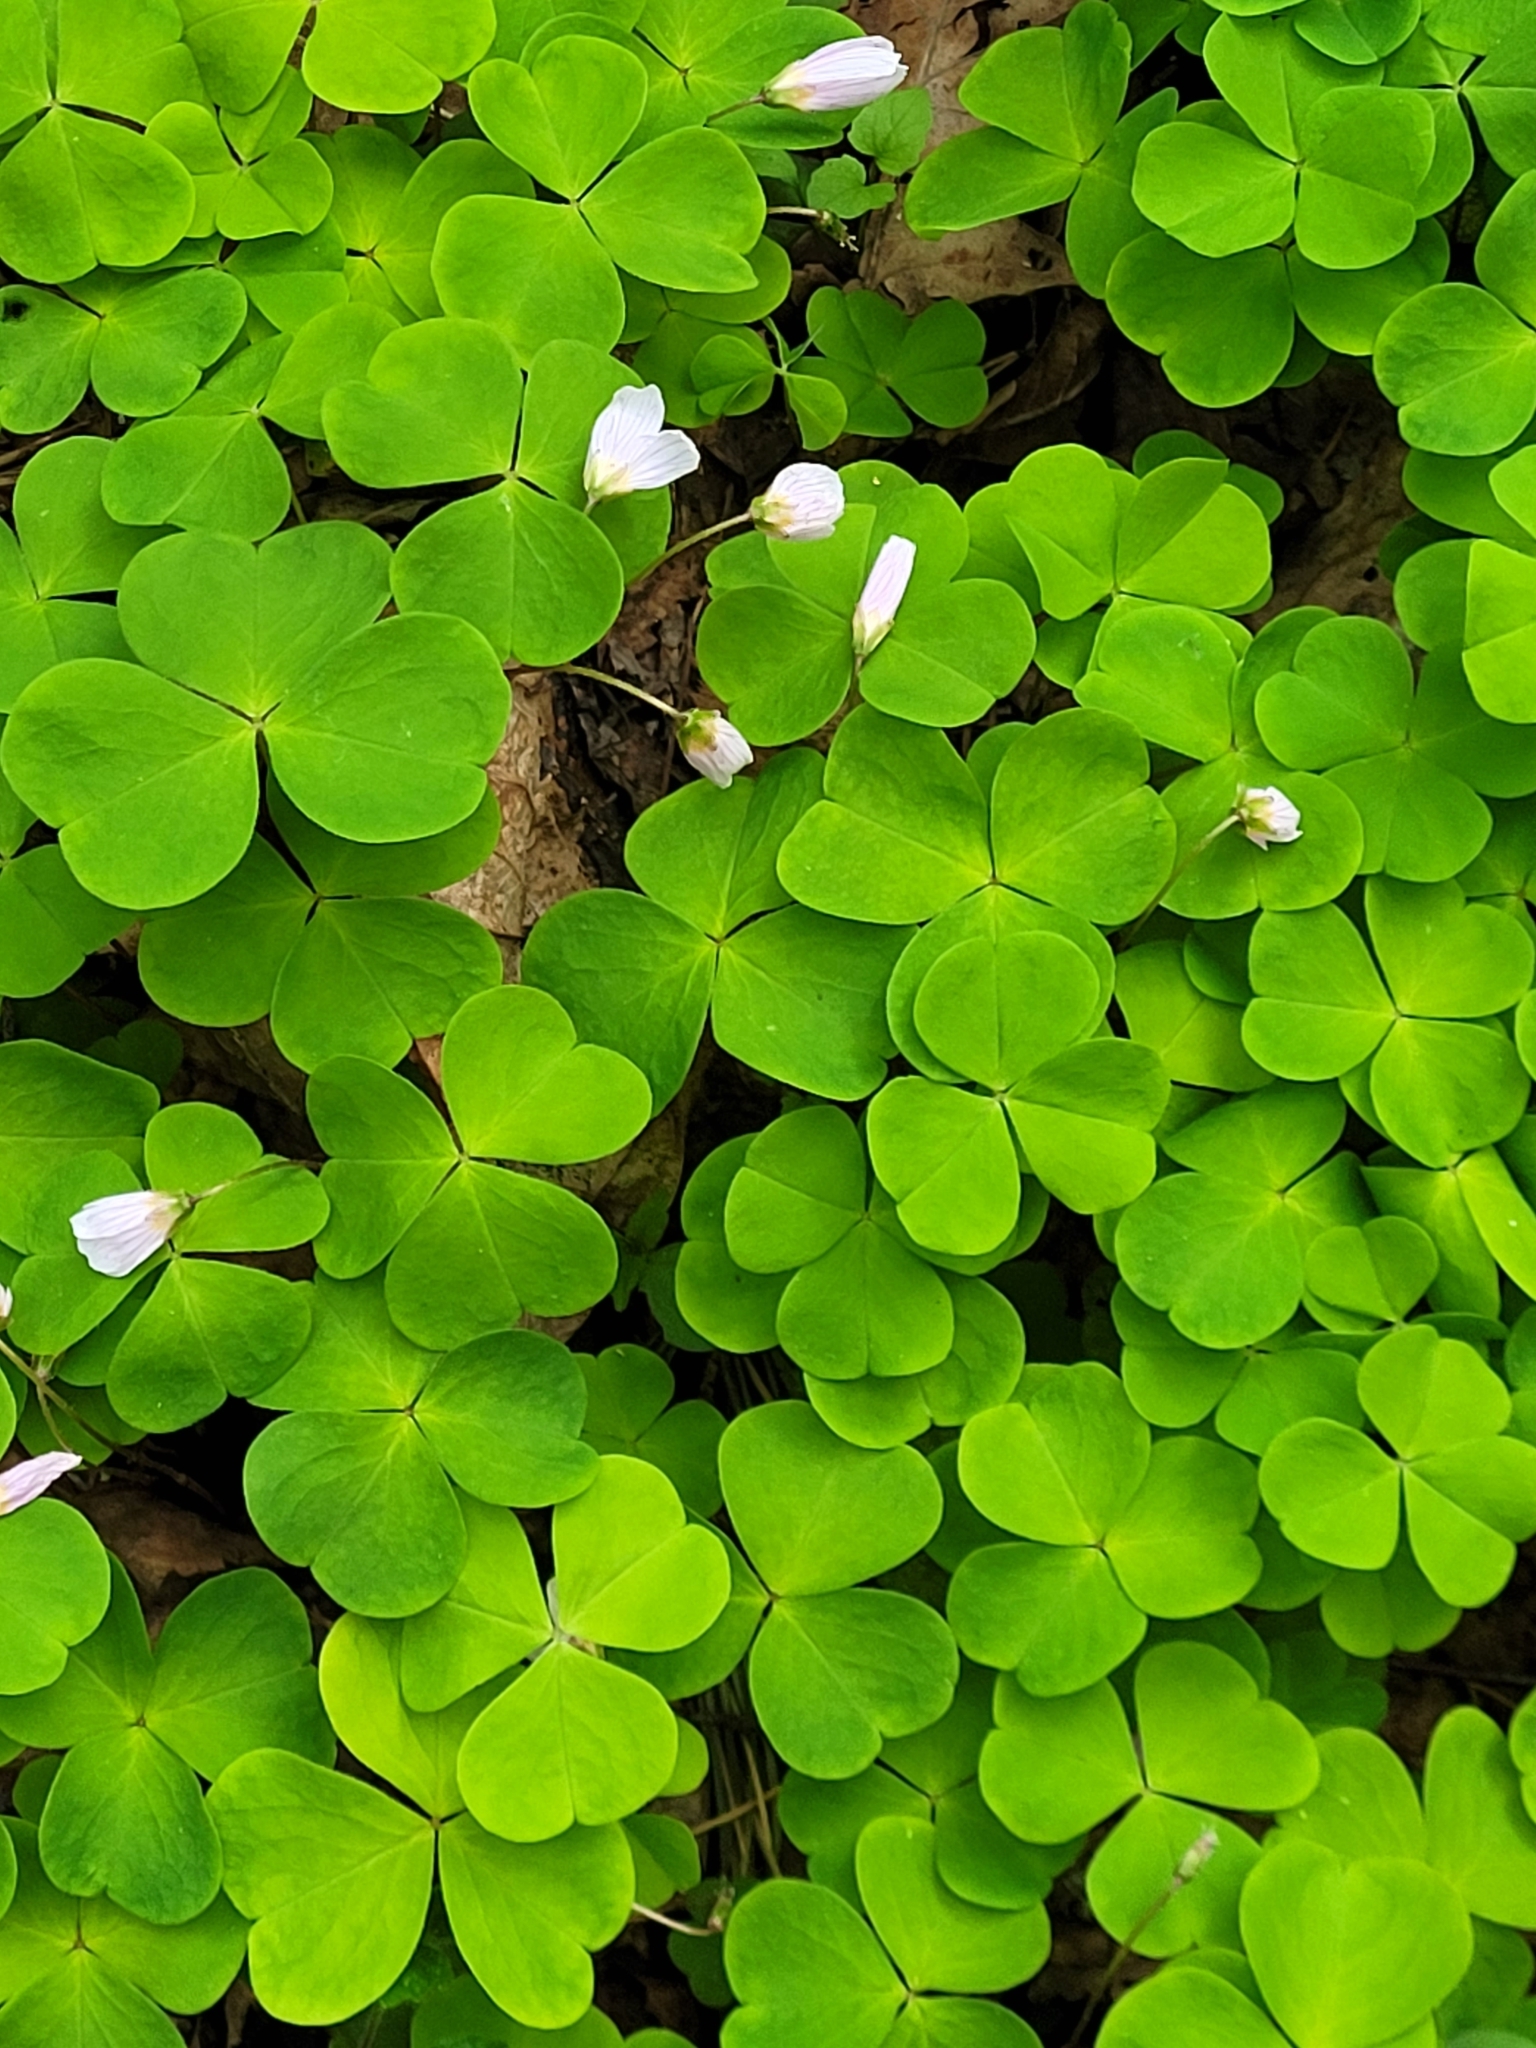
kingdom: Plantae
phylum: Tracheophyta
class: Magnoliopsida
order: Oxalidales
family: Oxalidaceae
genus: Oxalis
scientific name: Oxalis acetosella
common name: Wood-sorrel
